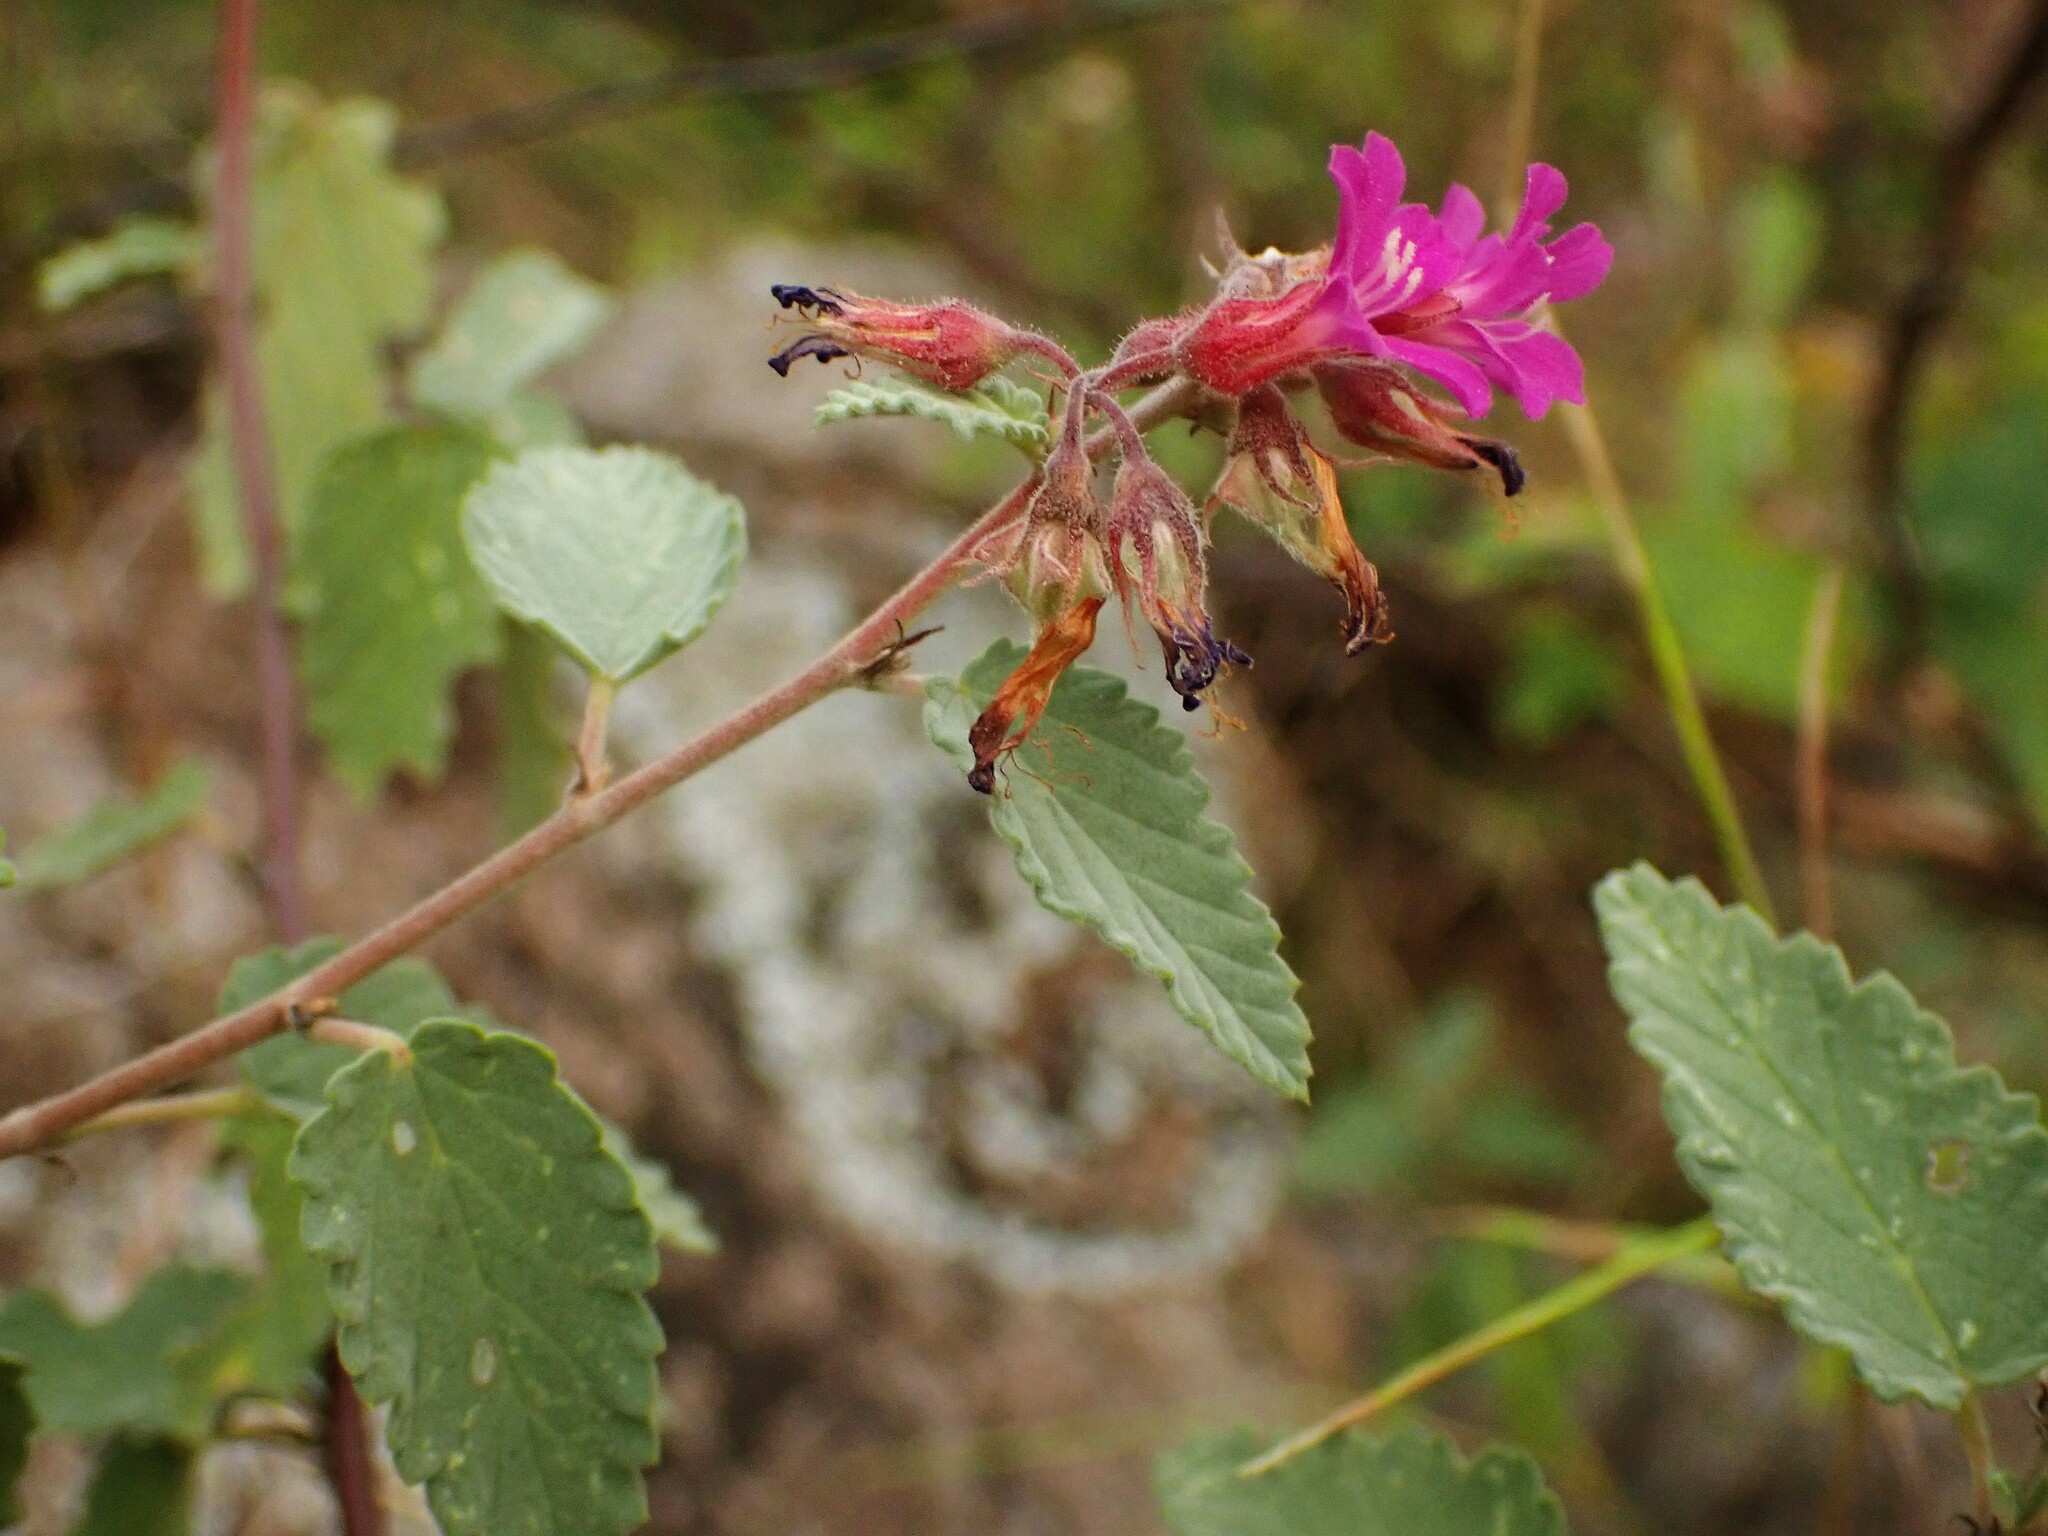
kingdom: Plantae
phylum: Tracheophyta
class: Magnoliopsida
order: Malvales
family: Malvaceae
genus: Melochia
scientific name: Melochia tomentosa
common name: Black torch
